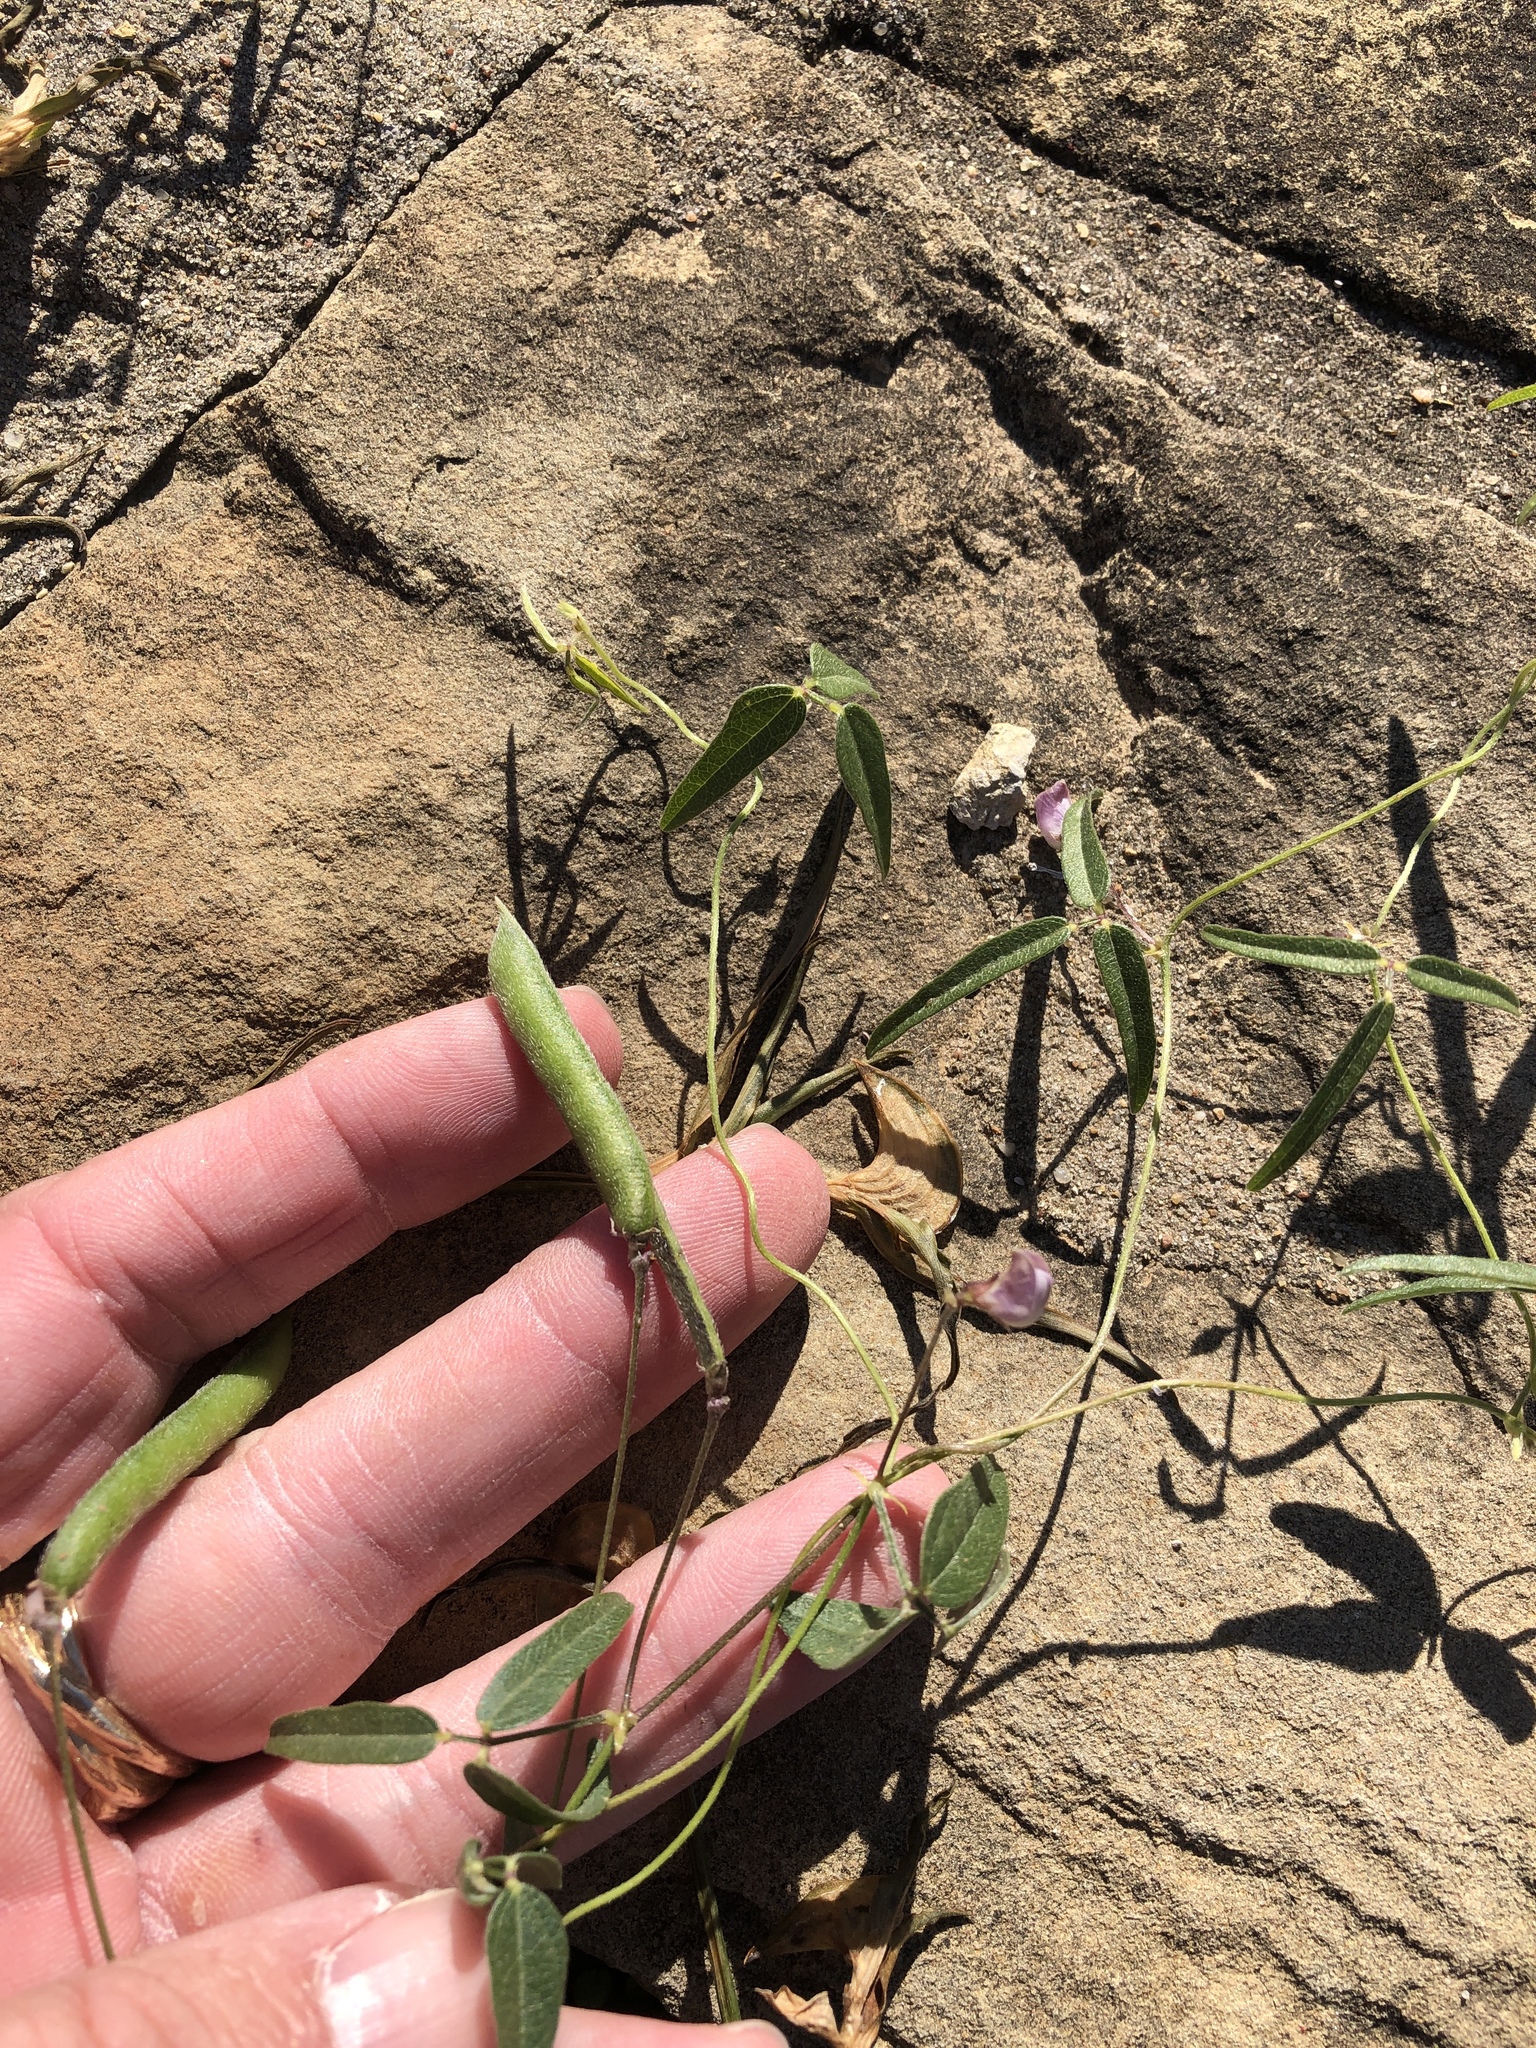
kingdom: Plantae
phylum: Tracheophyta
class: Magnoliopsida
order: Fabales
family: Fabaceae
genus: Strophostyles
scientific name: Strophostyles leiosperma
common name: Smooth-seed wild bean
